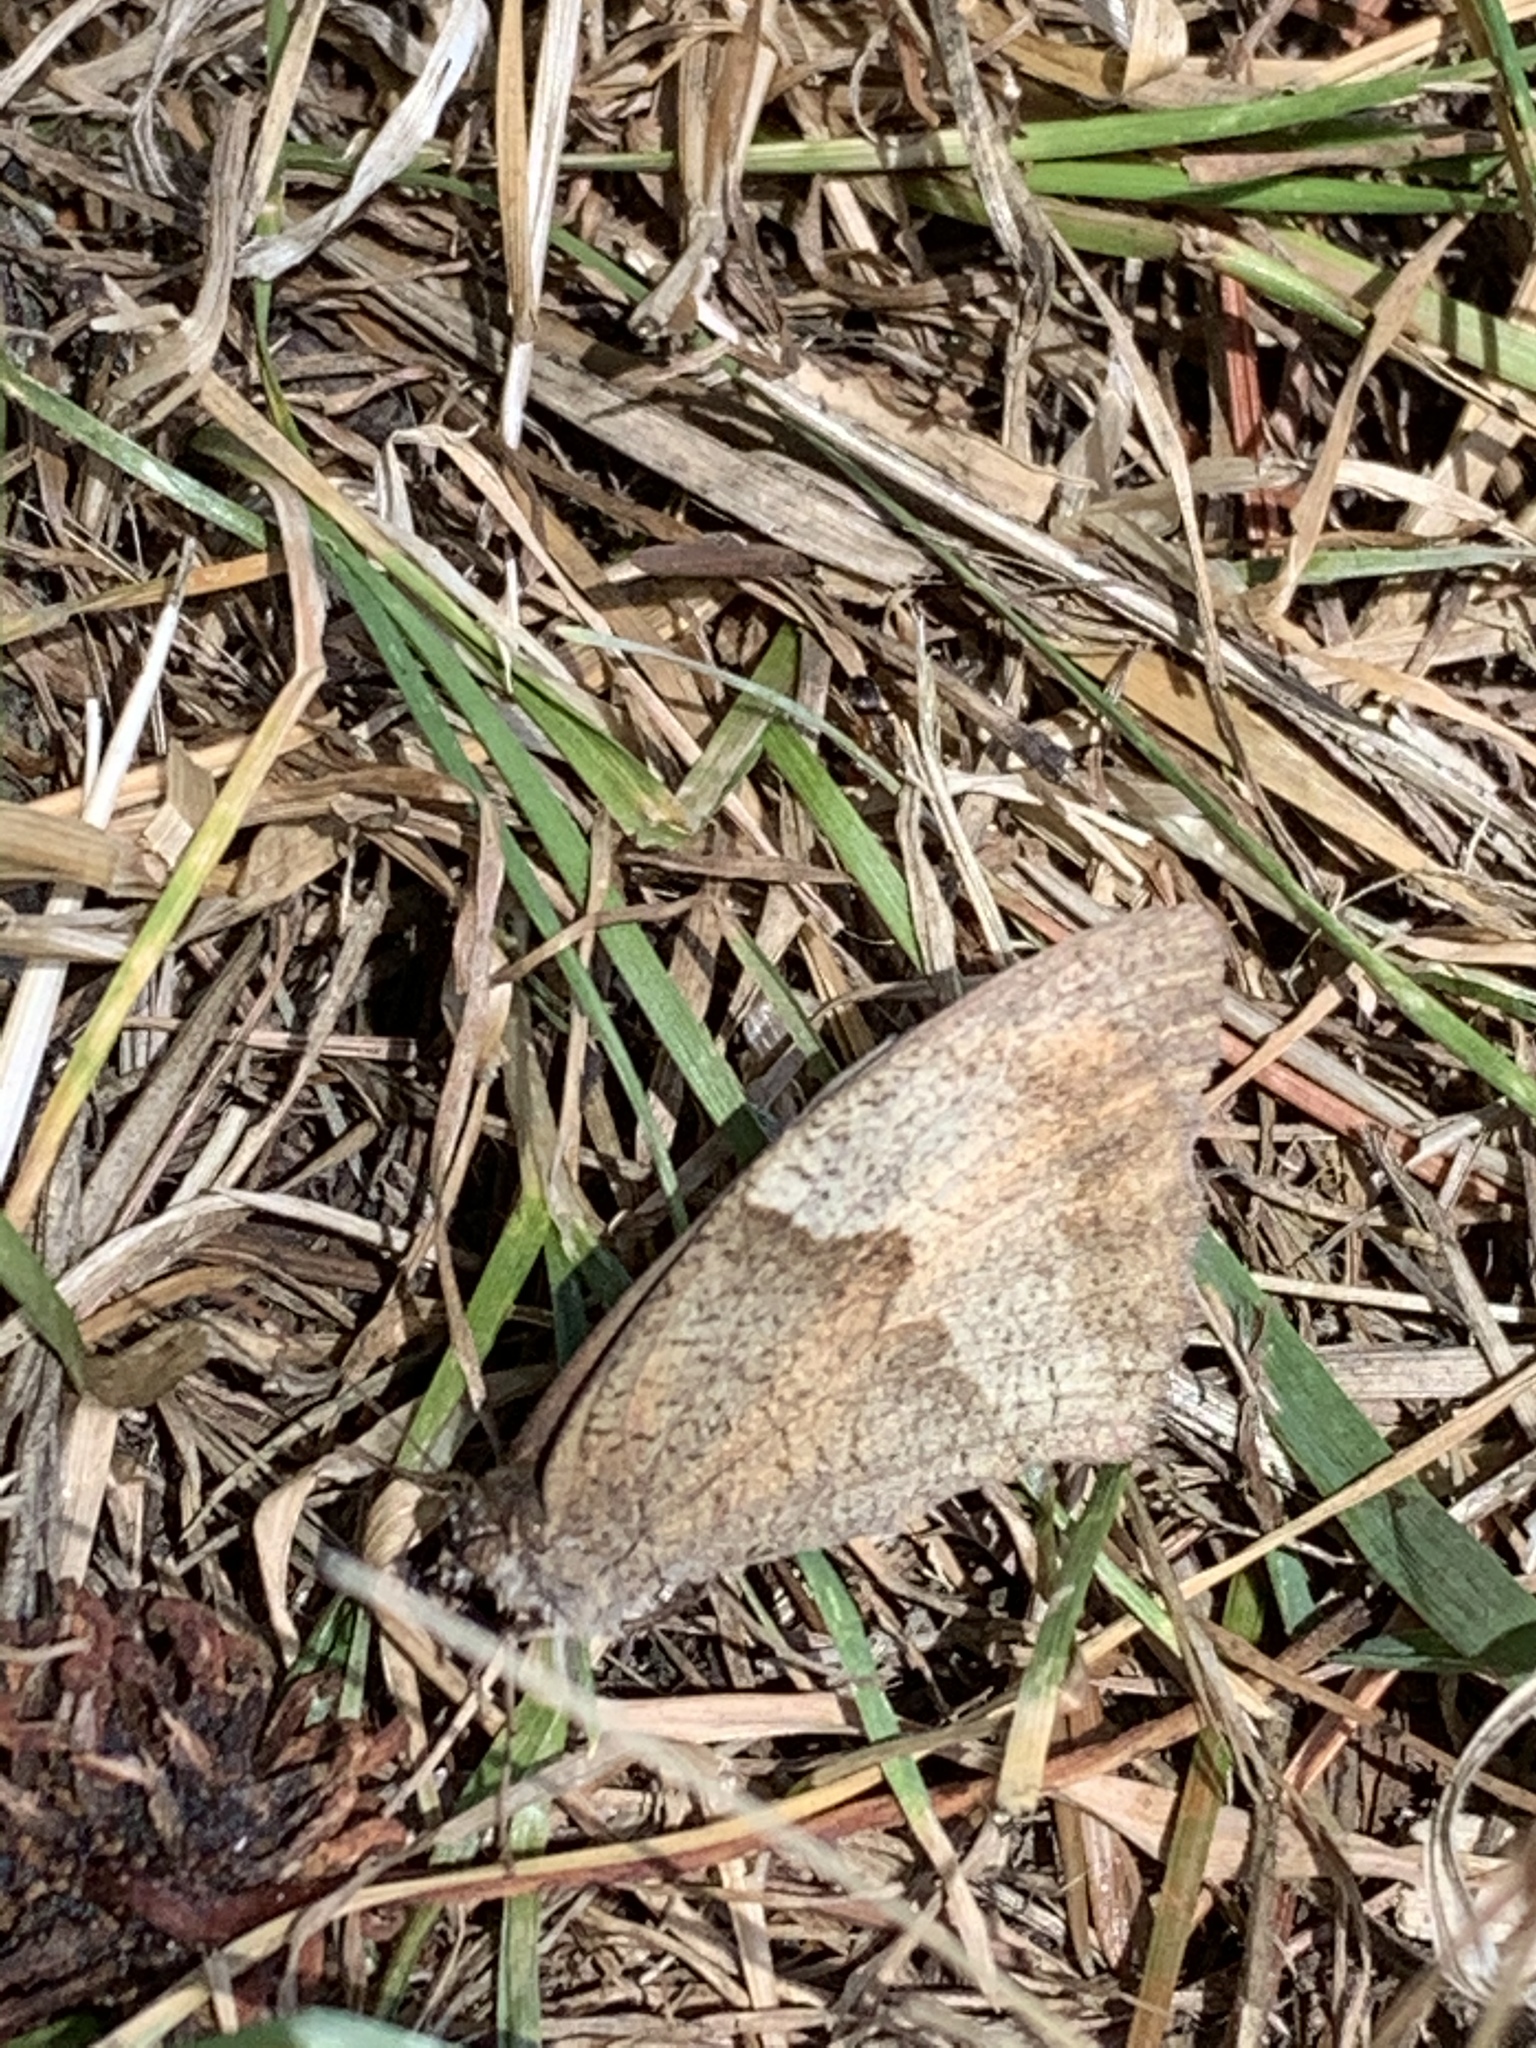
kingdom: Animalia
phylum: Arthropoda
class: Insecta
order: Lepidoptera
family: Nymphalidae
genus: Maniola
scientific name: Maniola jurtina
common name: Meadow brown
